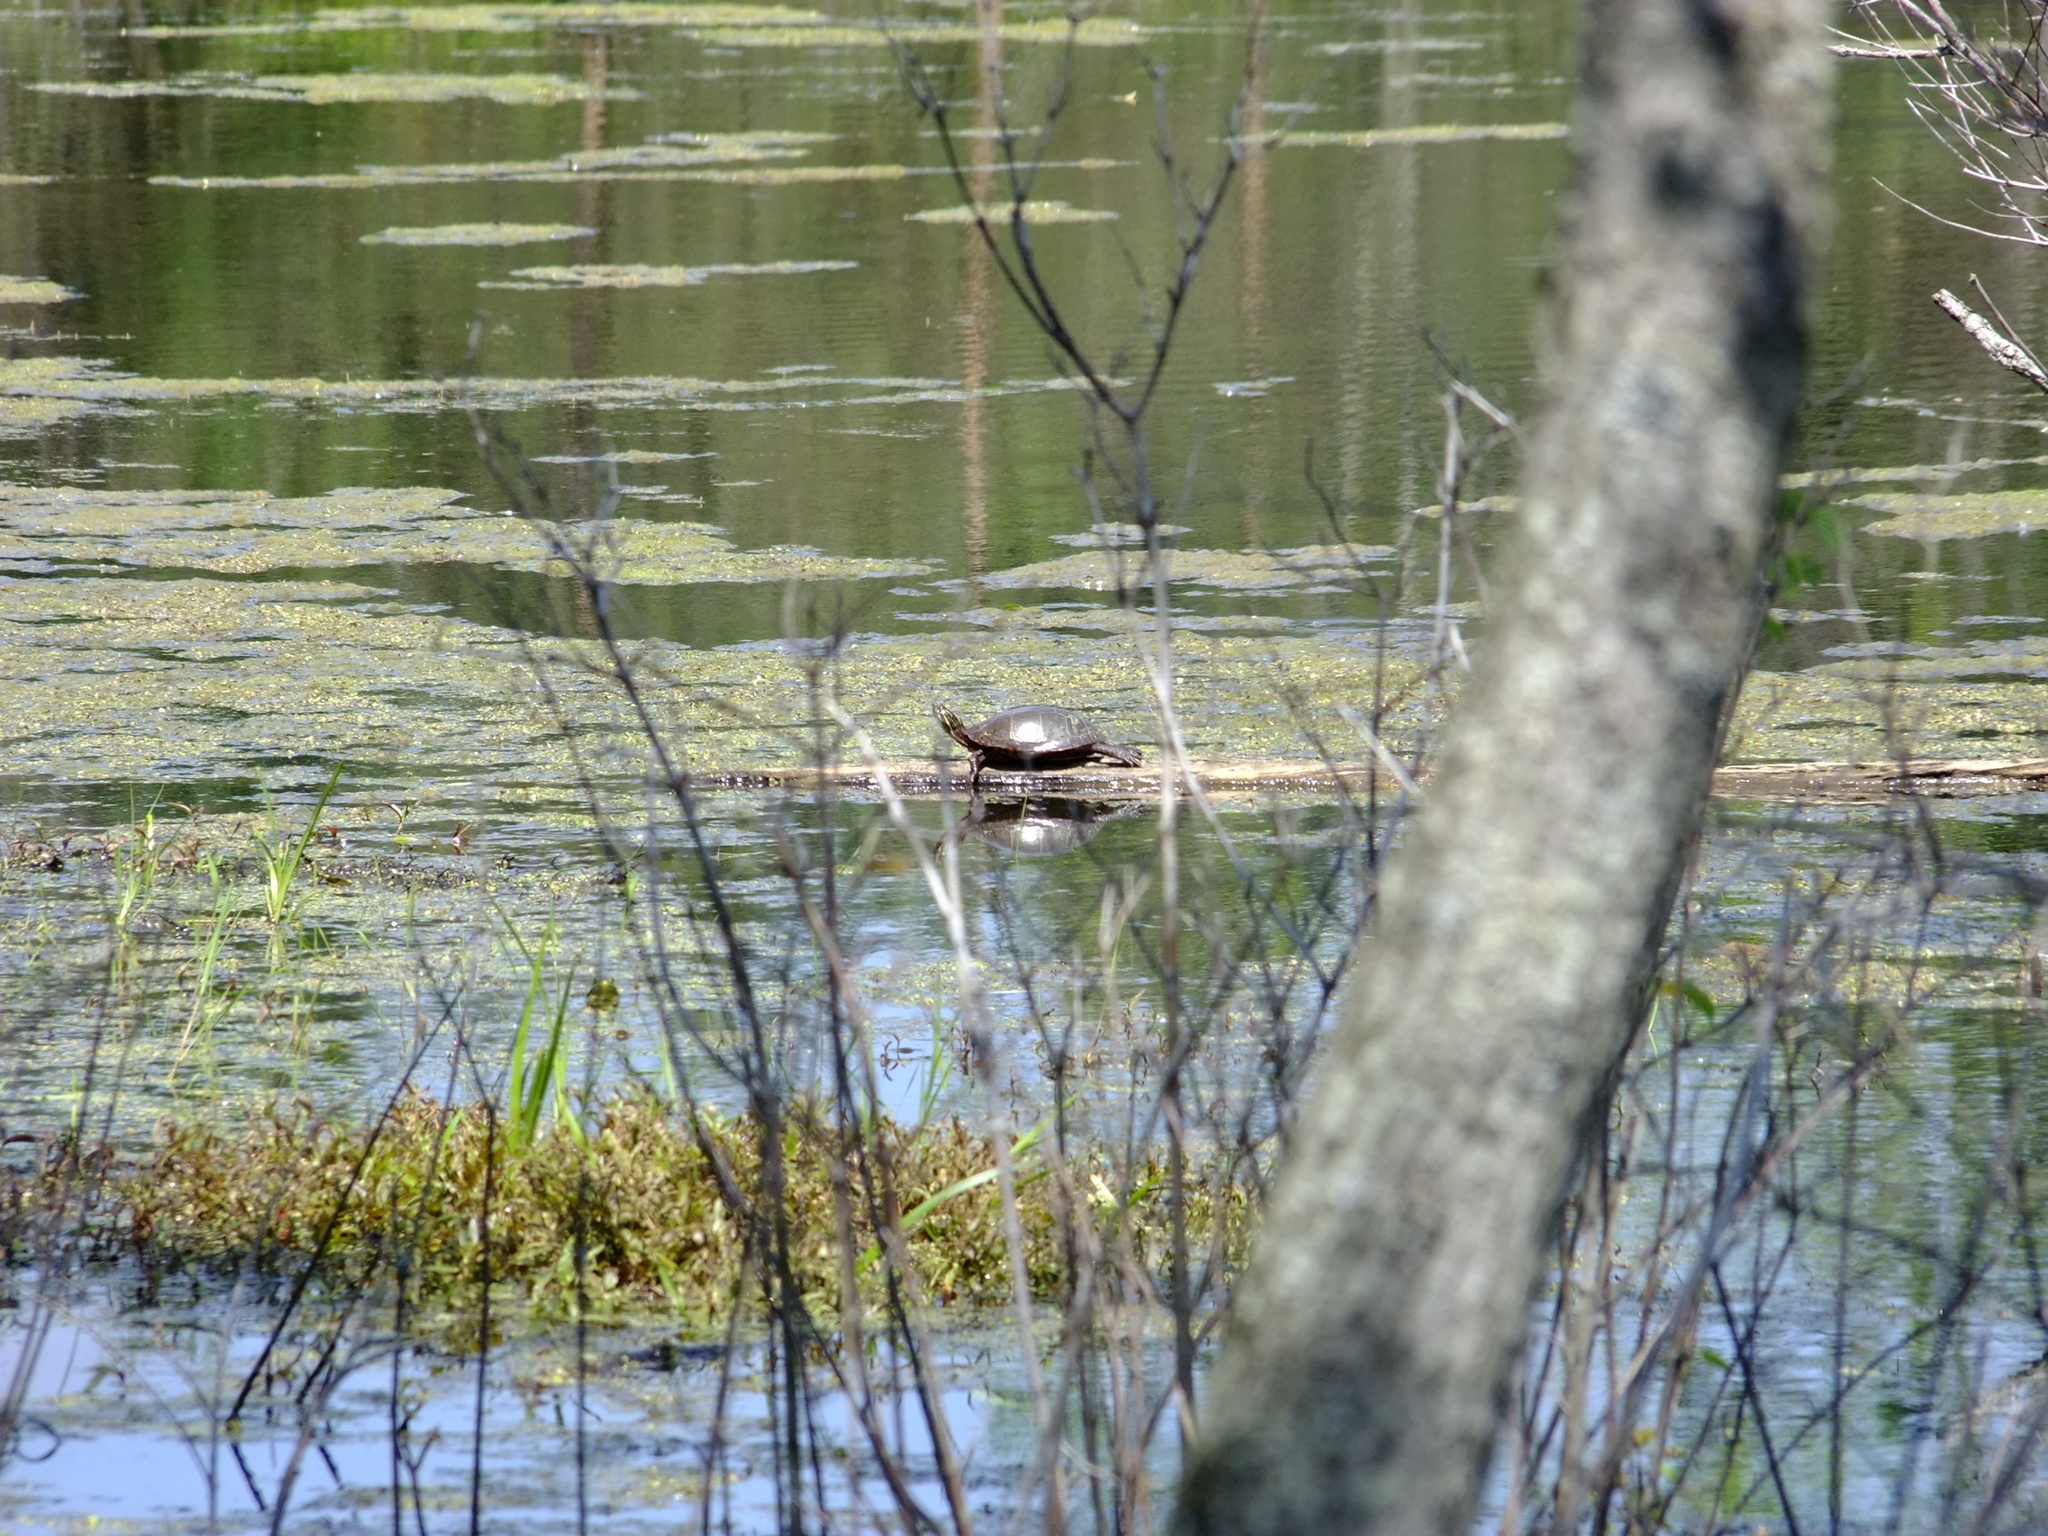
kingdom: Animalia
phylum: Chordata
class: Testudines
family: Emydidae
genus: Chrysemys
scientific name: Chrysemys picta
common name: Painted turtle
